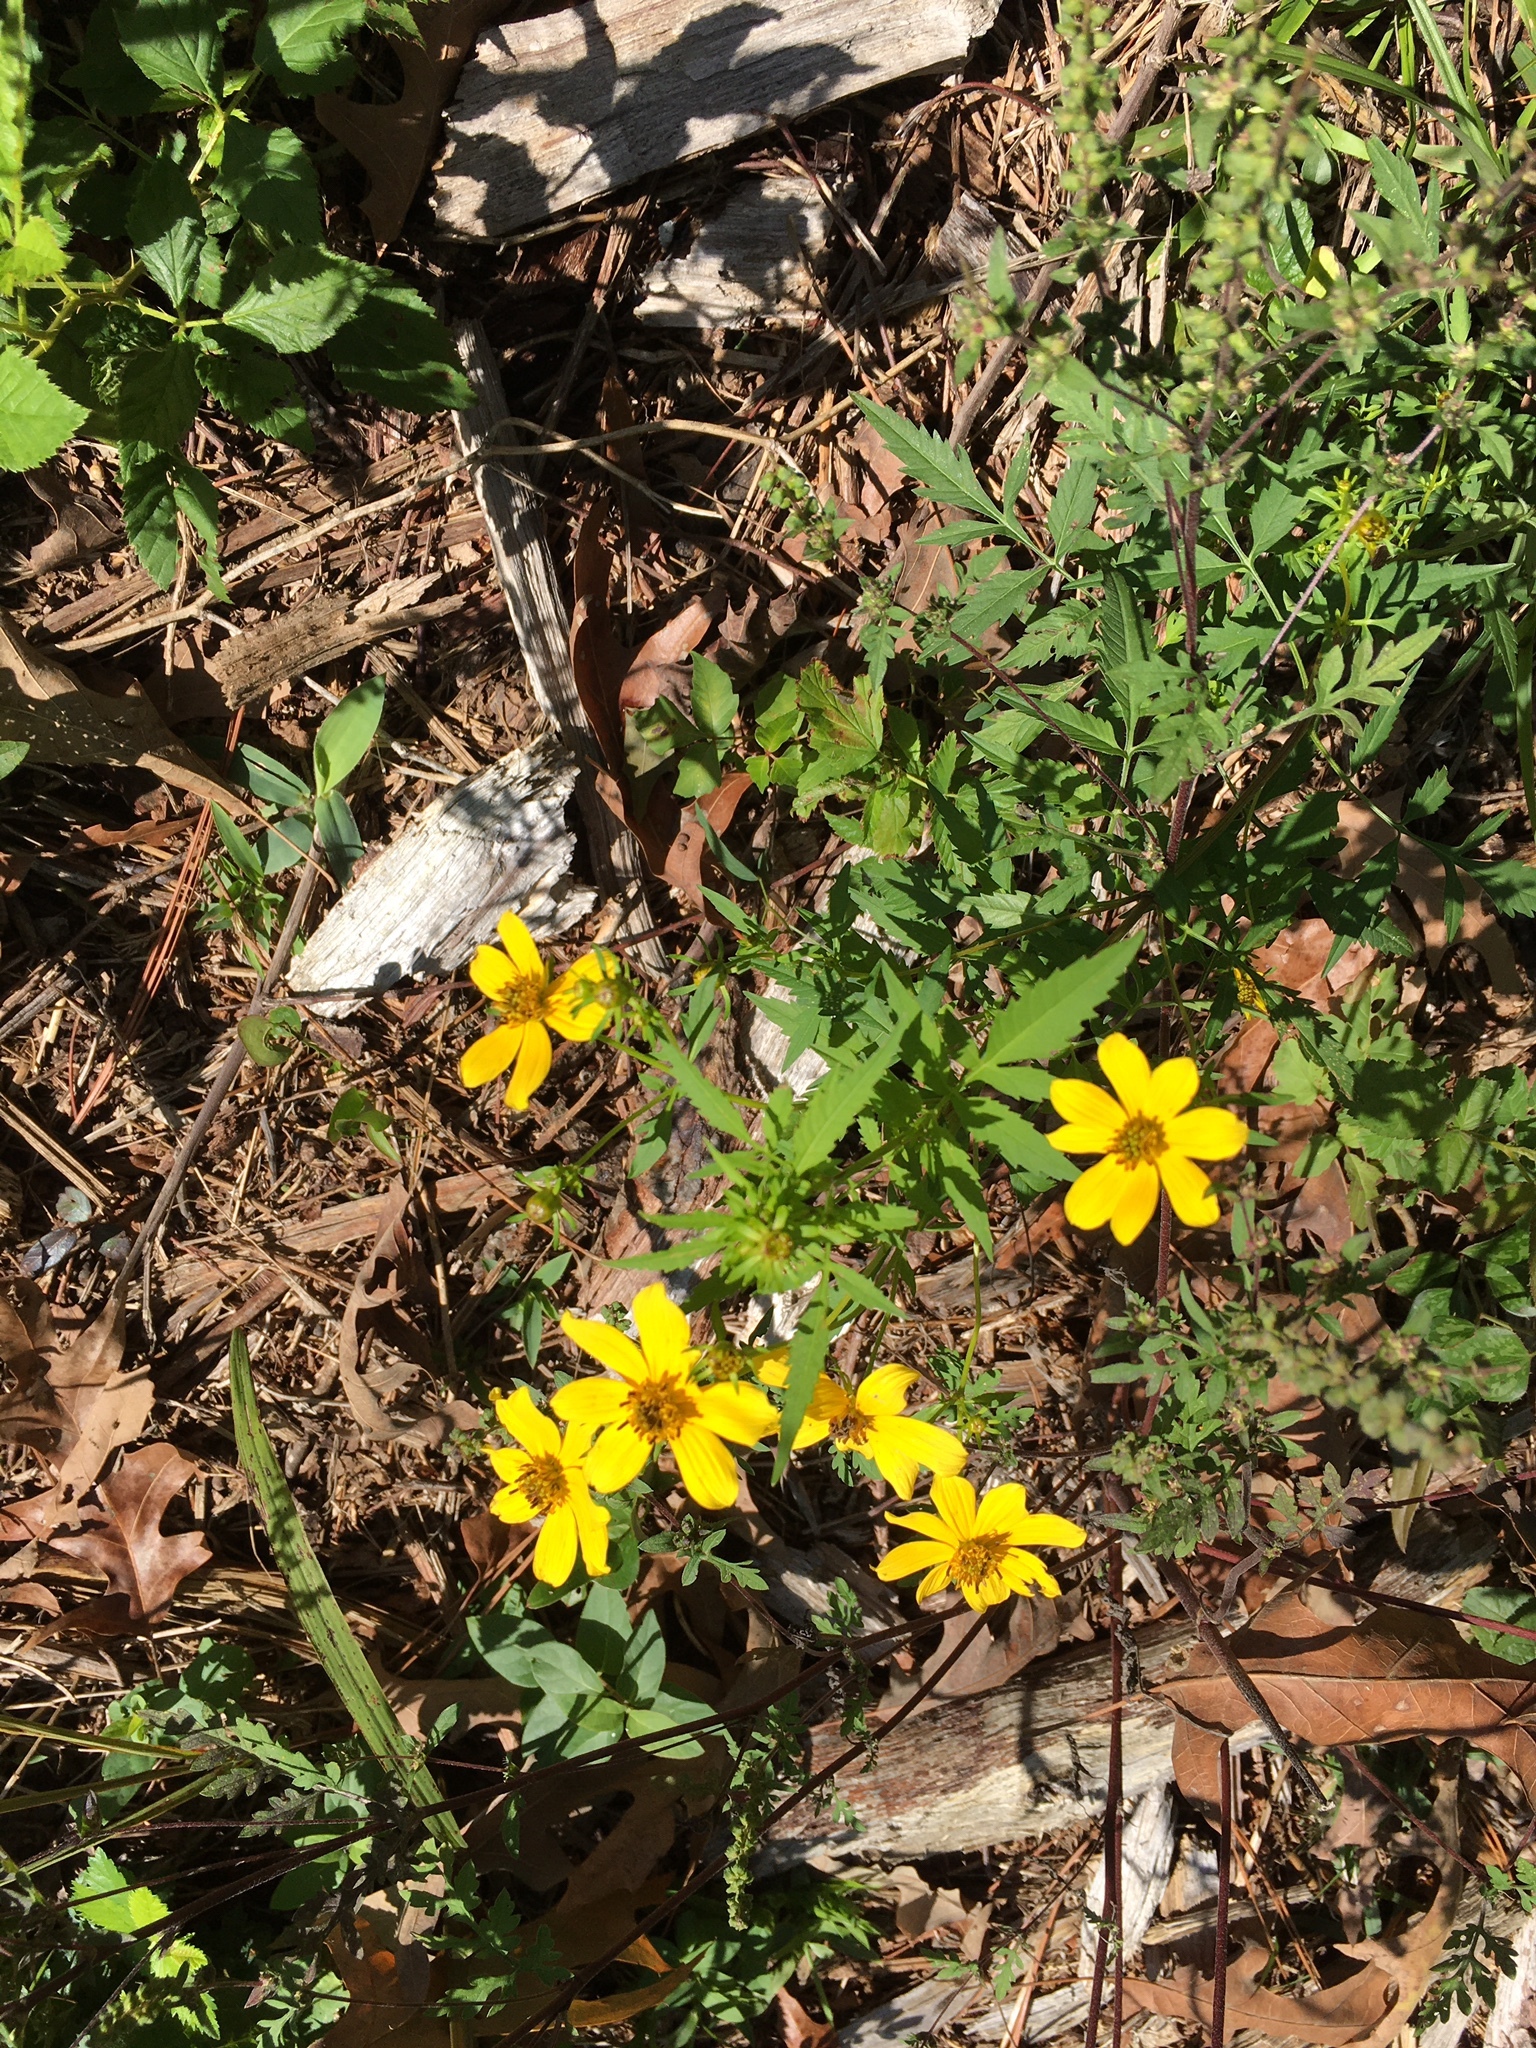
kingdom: Plantae
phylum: Tracheophyta
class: Magnoliopsida
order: Asterales
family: Asteraceae
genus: Bidens
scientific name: Bidens aristosa
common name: Western tickseed
